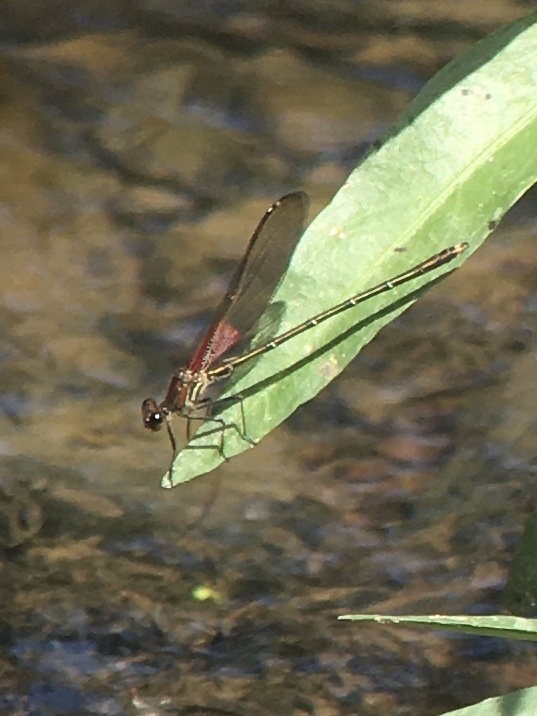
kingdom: Animalia
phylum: Arthropoda
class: Insecta
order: Odonata
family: Calopterygidae
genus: Hetaerina
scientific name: Hetaerina americana
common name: American rubyspot
